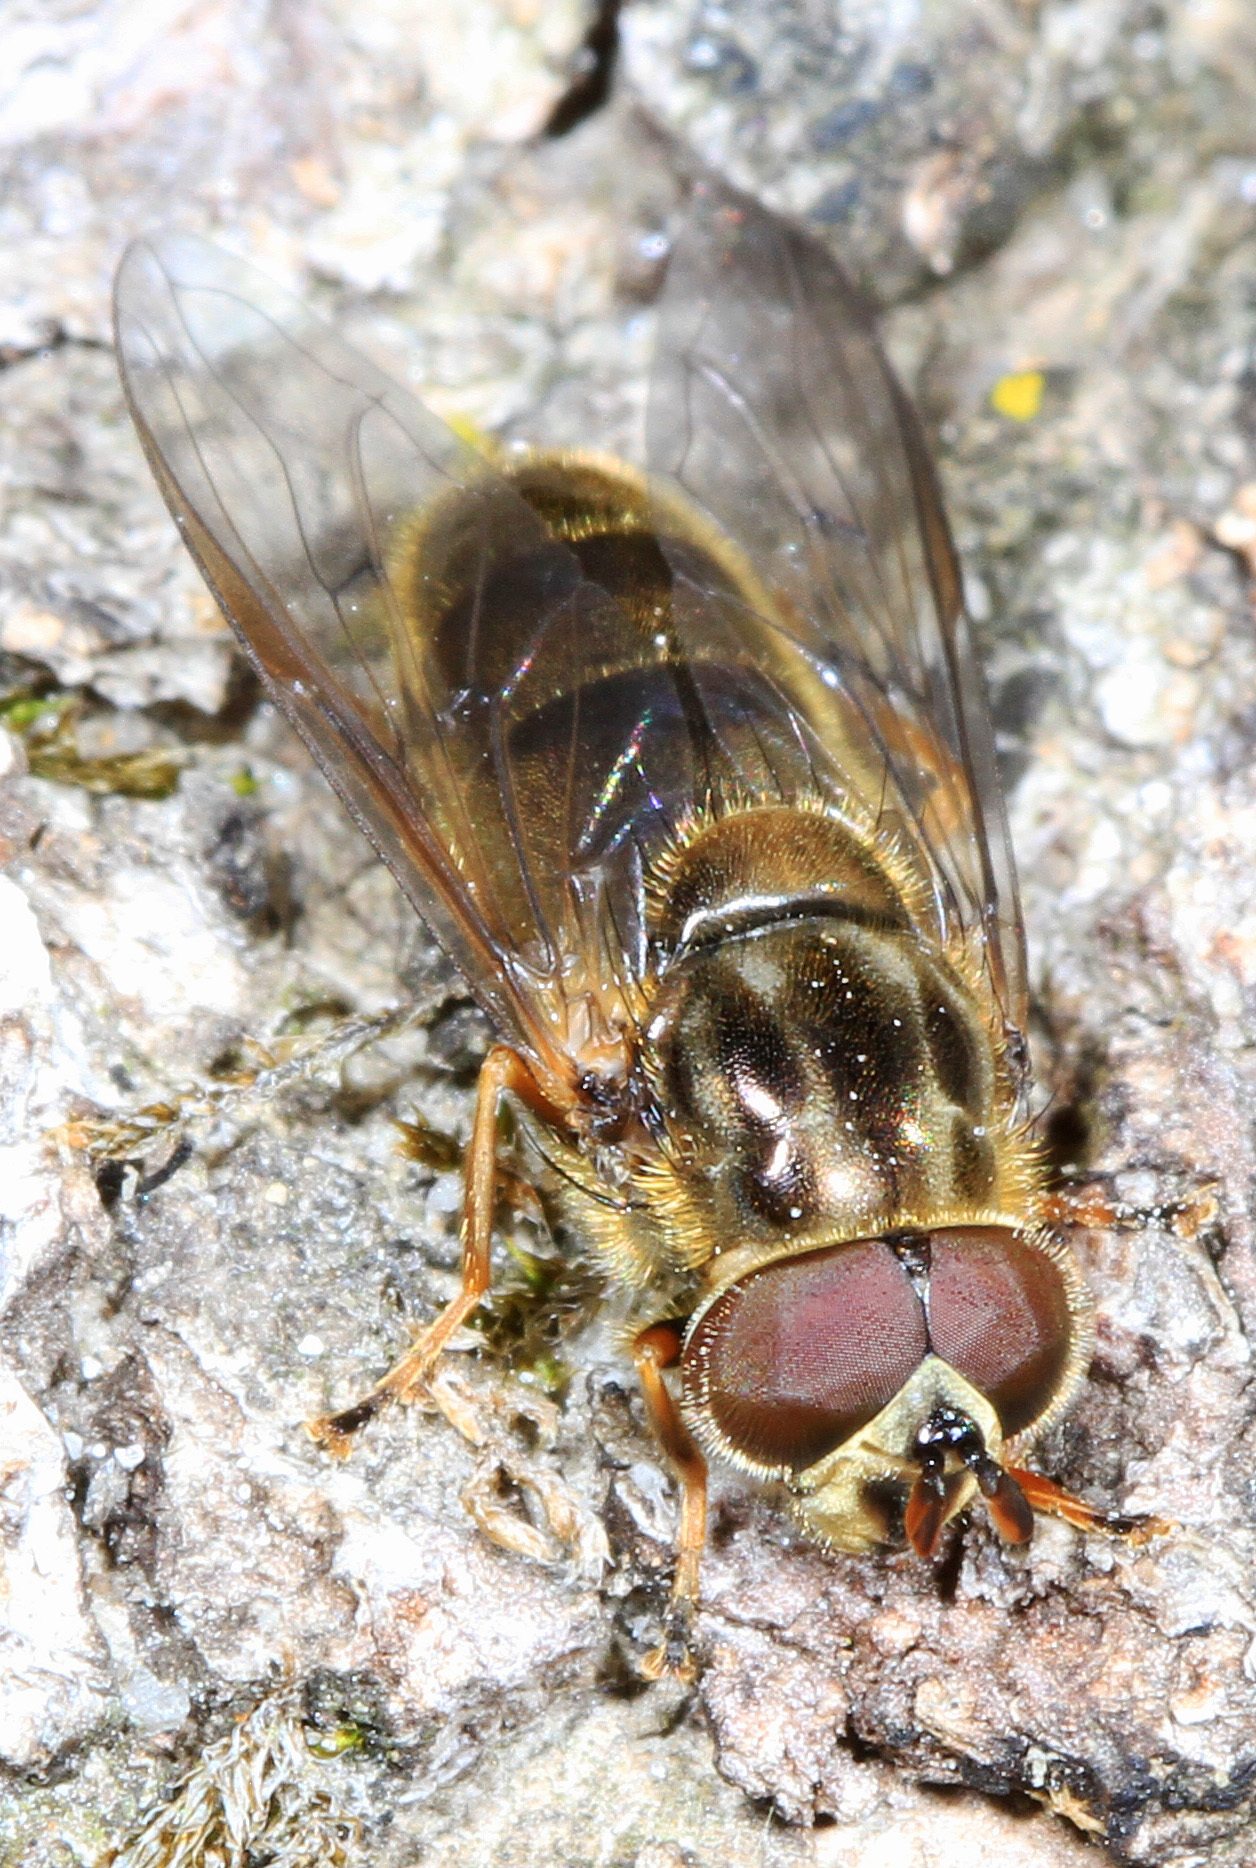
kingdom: Animalia
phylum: Arthropoda
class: Insecta
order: Diptera
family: Syrphidae
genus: Ferdinandea
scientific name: Ferdinandea buccata
